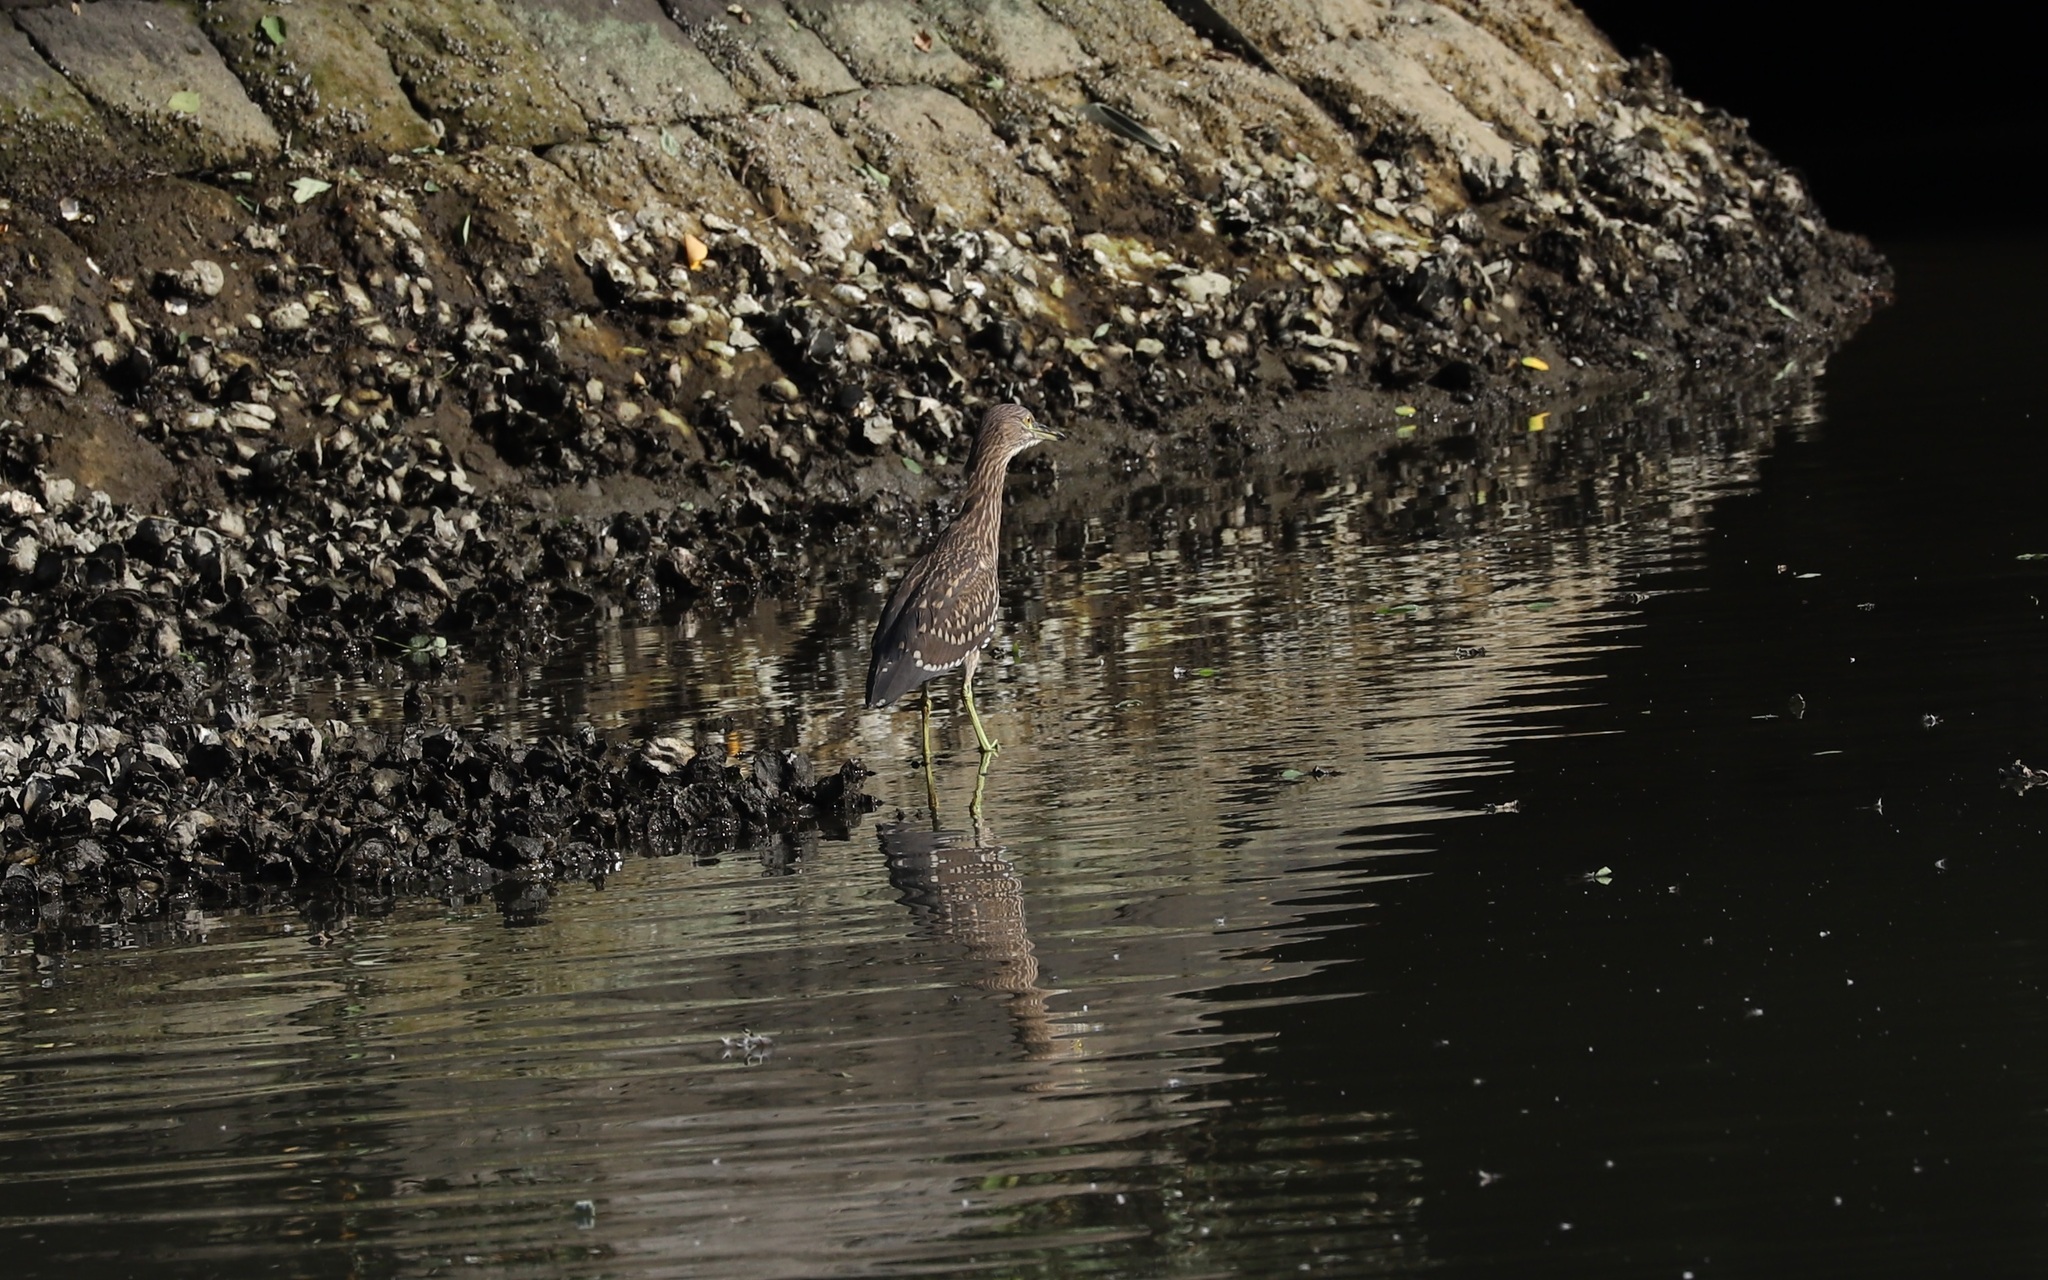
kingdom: Animalia
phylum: Chordata
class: Aves
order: Pelecaniformes
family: Ardeidae
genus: Nycticorax
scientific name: Nycticorax nycticorax
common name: Black-crowned night heron
